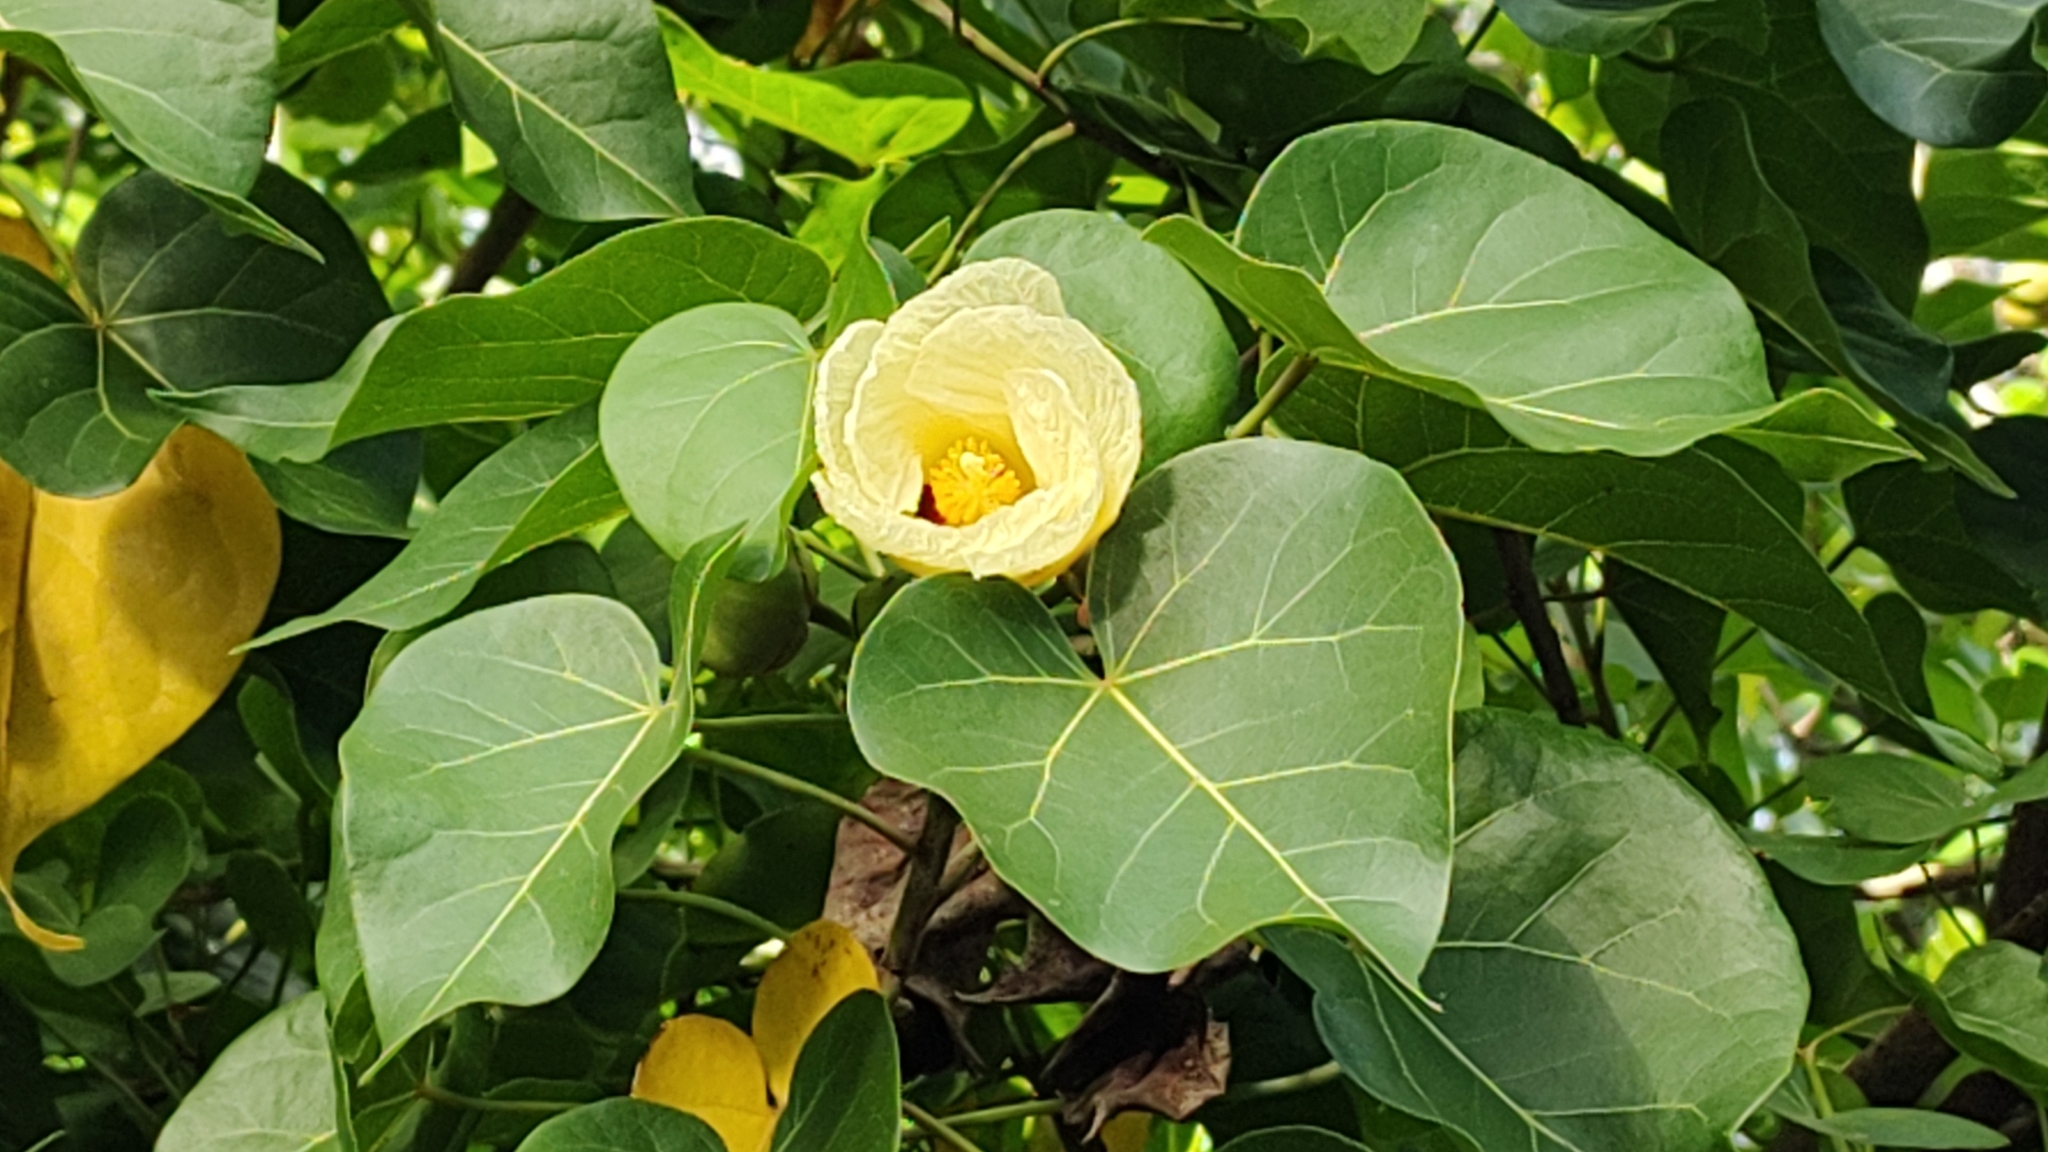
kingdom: Plantae
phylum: Tracheophyta
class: Magnoliopsida
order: Malvales
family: Malvaceae
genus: Thespesia
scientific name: Thespesia populnea
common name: Seaside mahoe
